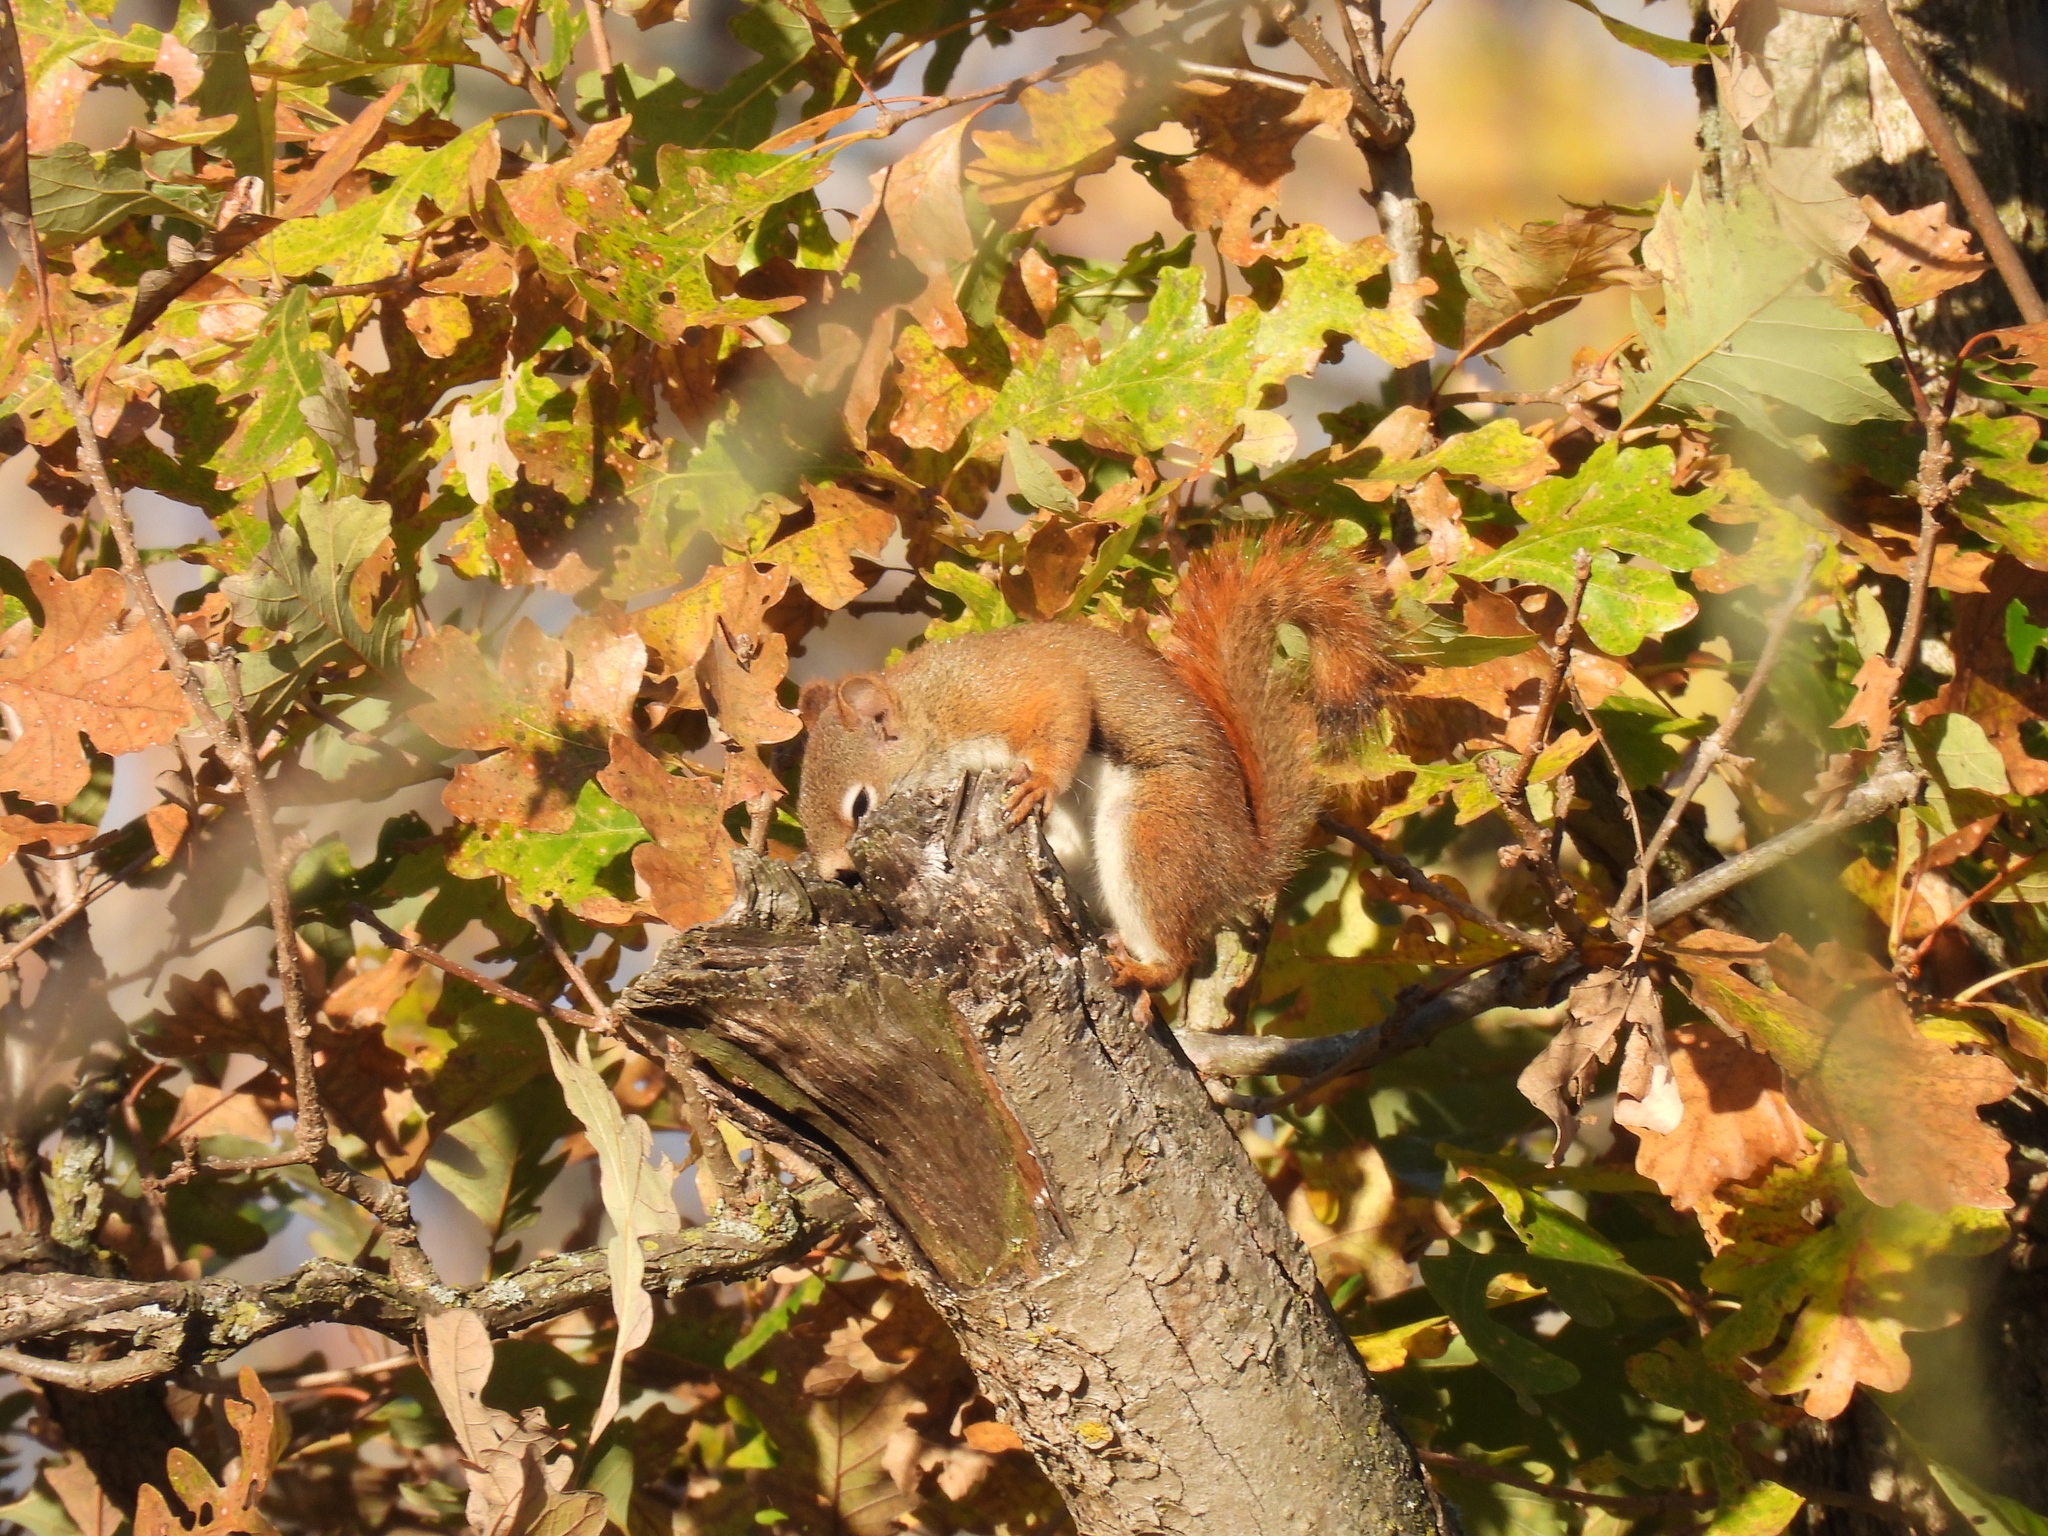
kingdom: Animalia
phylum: Chordata
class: Mammalia
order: Rodentia
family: Sciuridae
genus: Tamiasciurus
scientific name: Tamiasciurus hudsonicus
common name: Red squirrel
